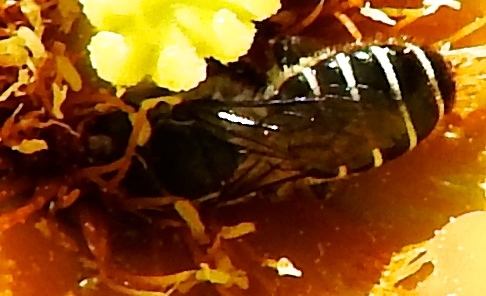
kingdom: Animalia
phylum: Arthropoda
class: Insecta
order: Hymenoptera
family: Megachilidae
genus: Lithurgopsis
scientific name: Lithurgopsis
